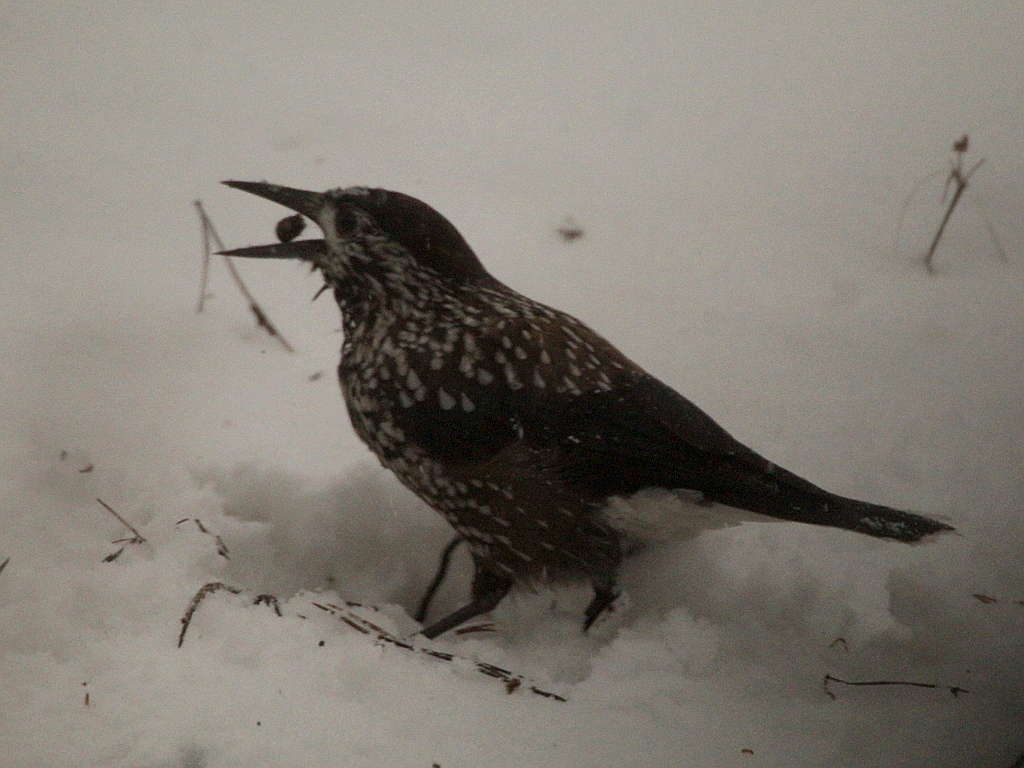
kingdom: Animalia
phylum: Chordata
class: Aves
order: Passeriformes
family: Corvidae
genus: Nucifraga
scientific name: Nucifraga caryocatactes
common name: Spotted nutcracker
